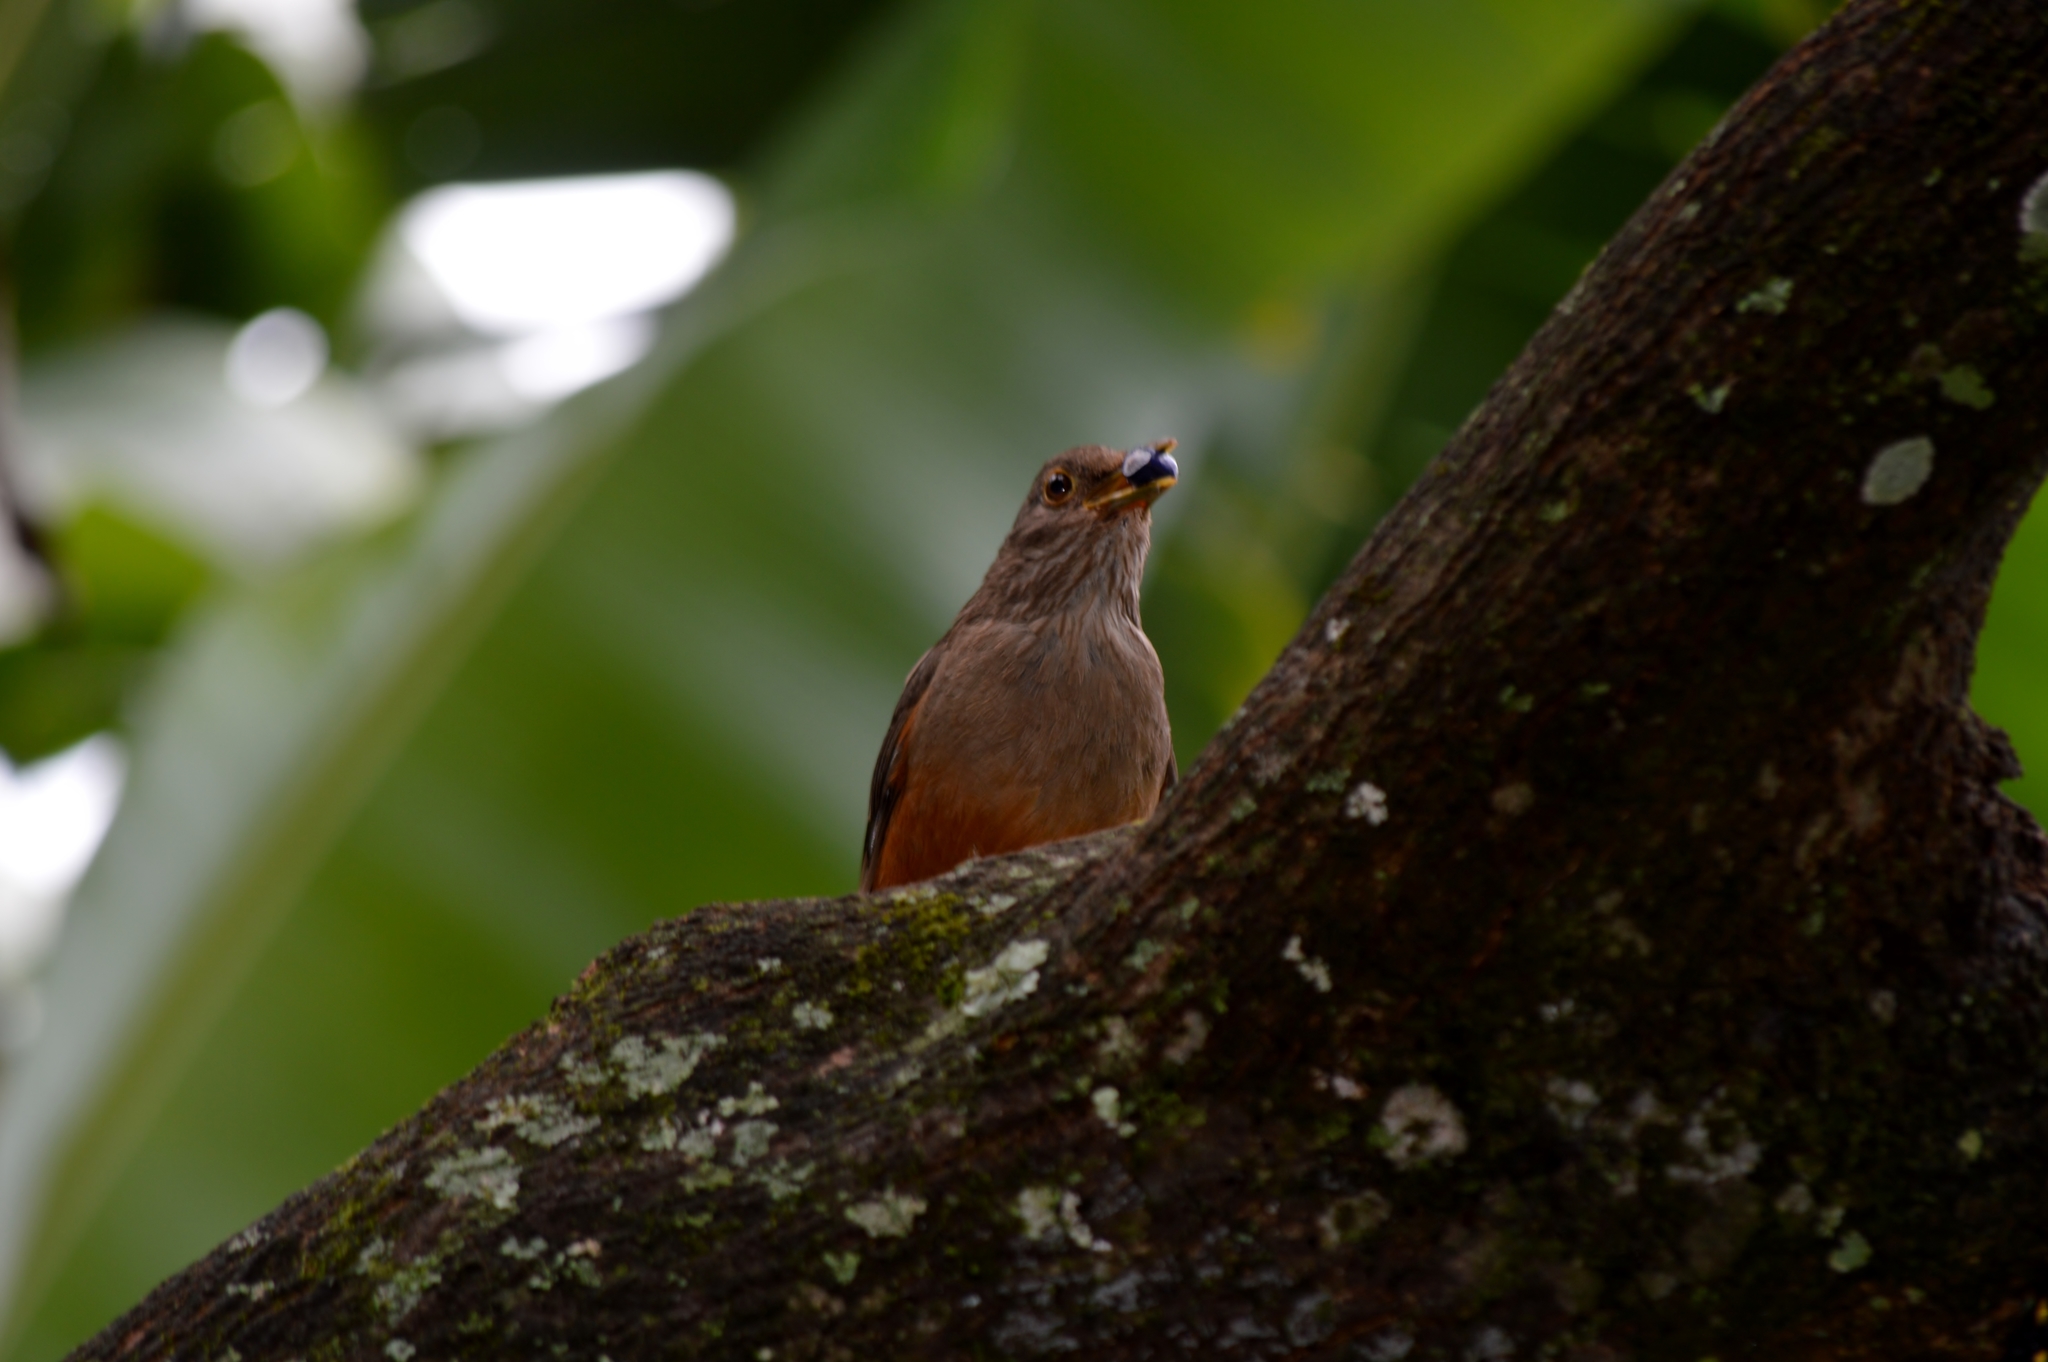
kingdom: Animalia
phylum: Chordata
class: Aves
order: Passeriformes
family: Turdidae
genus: Turdus
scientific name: Turdus rufiventris
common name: Rufous-bellied thrush
